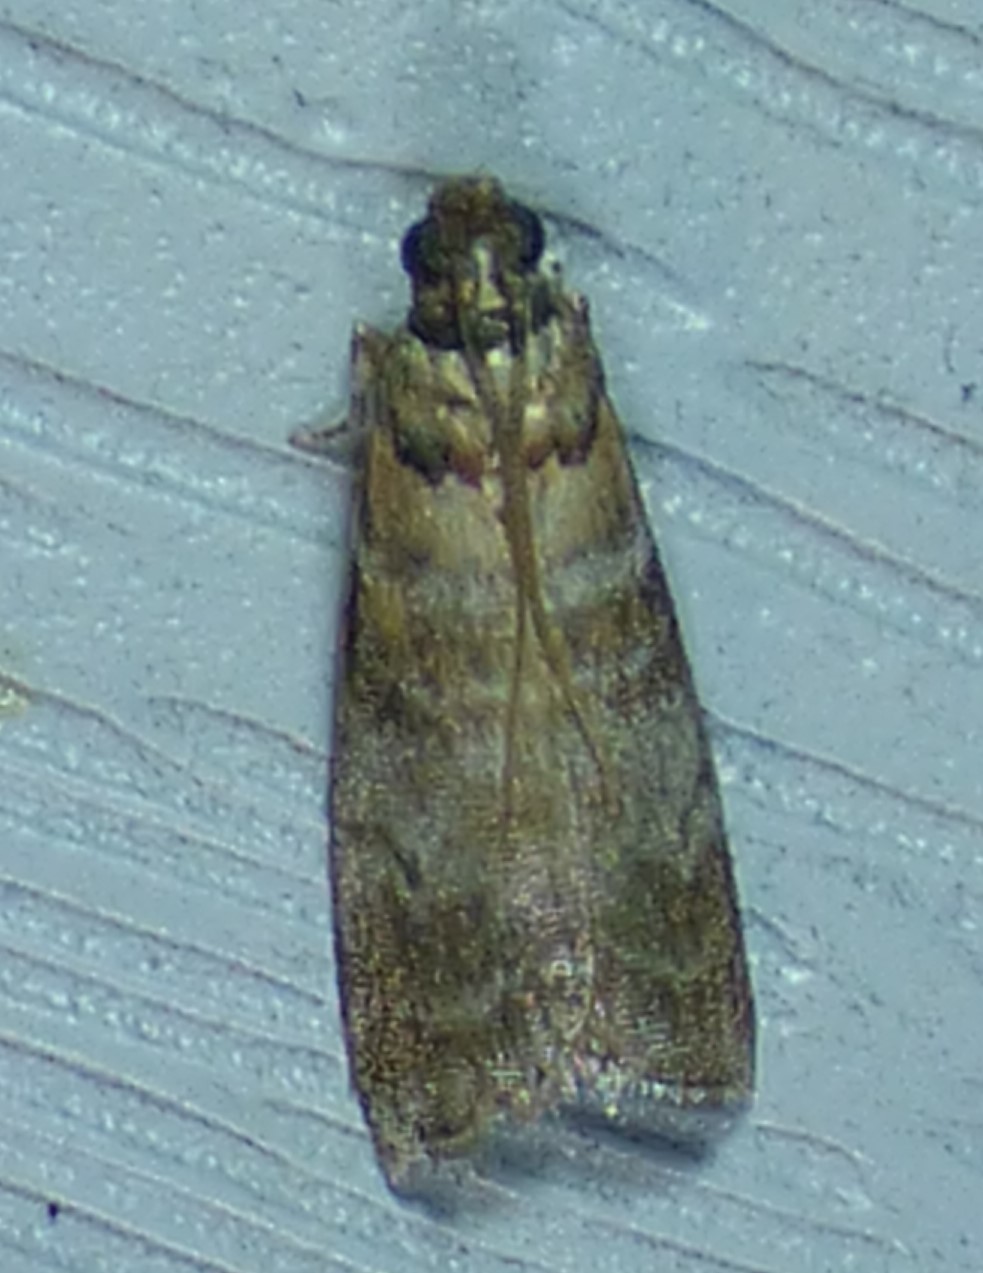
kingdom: Animalia
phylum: Arthropoda
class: Insecta
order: Lepidoptera
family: Pyralidae
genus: Sciota
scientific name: Sciota uvinella
